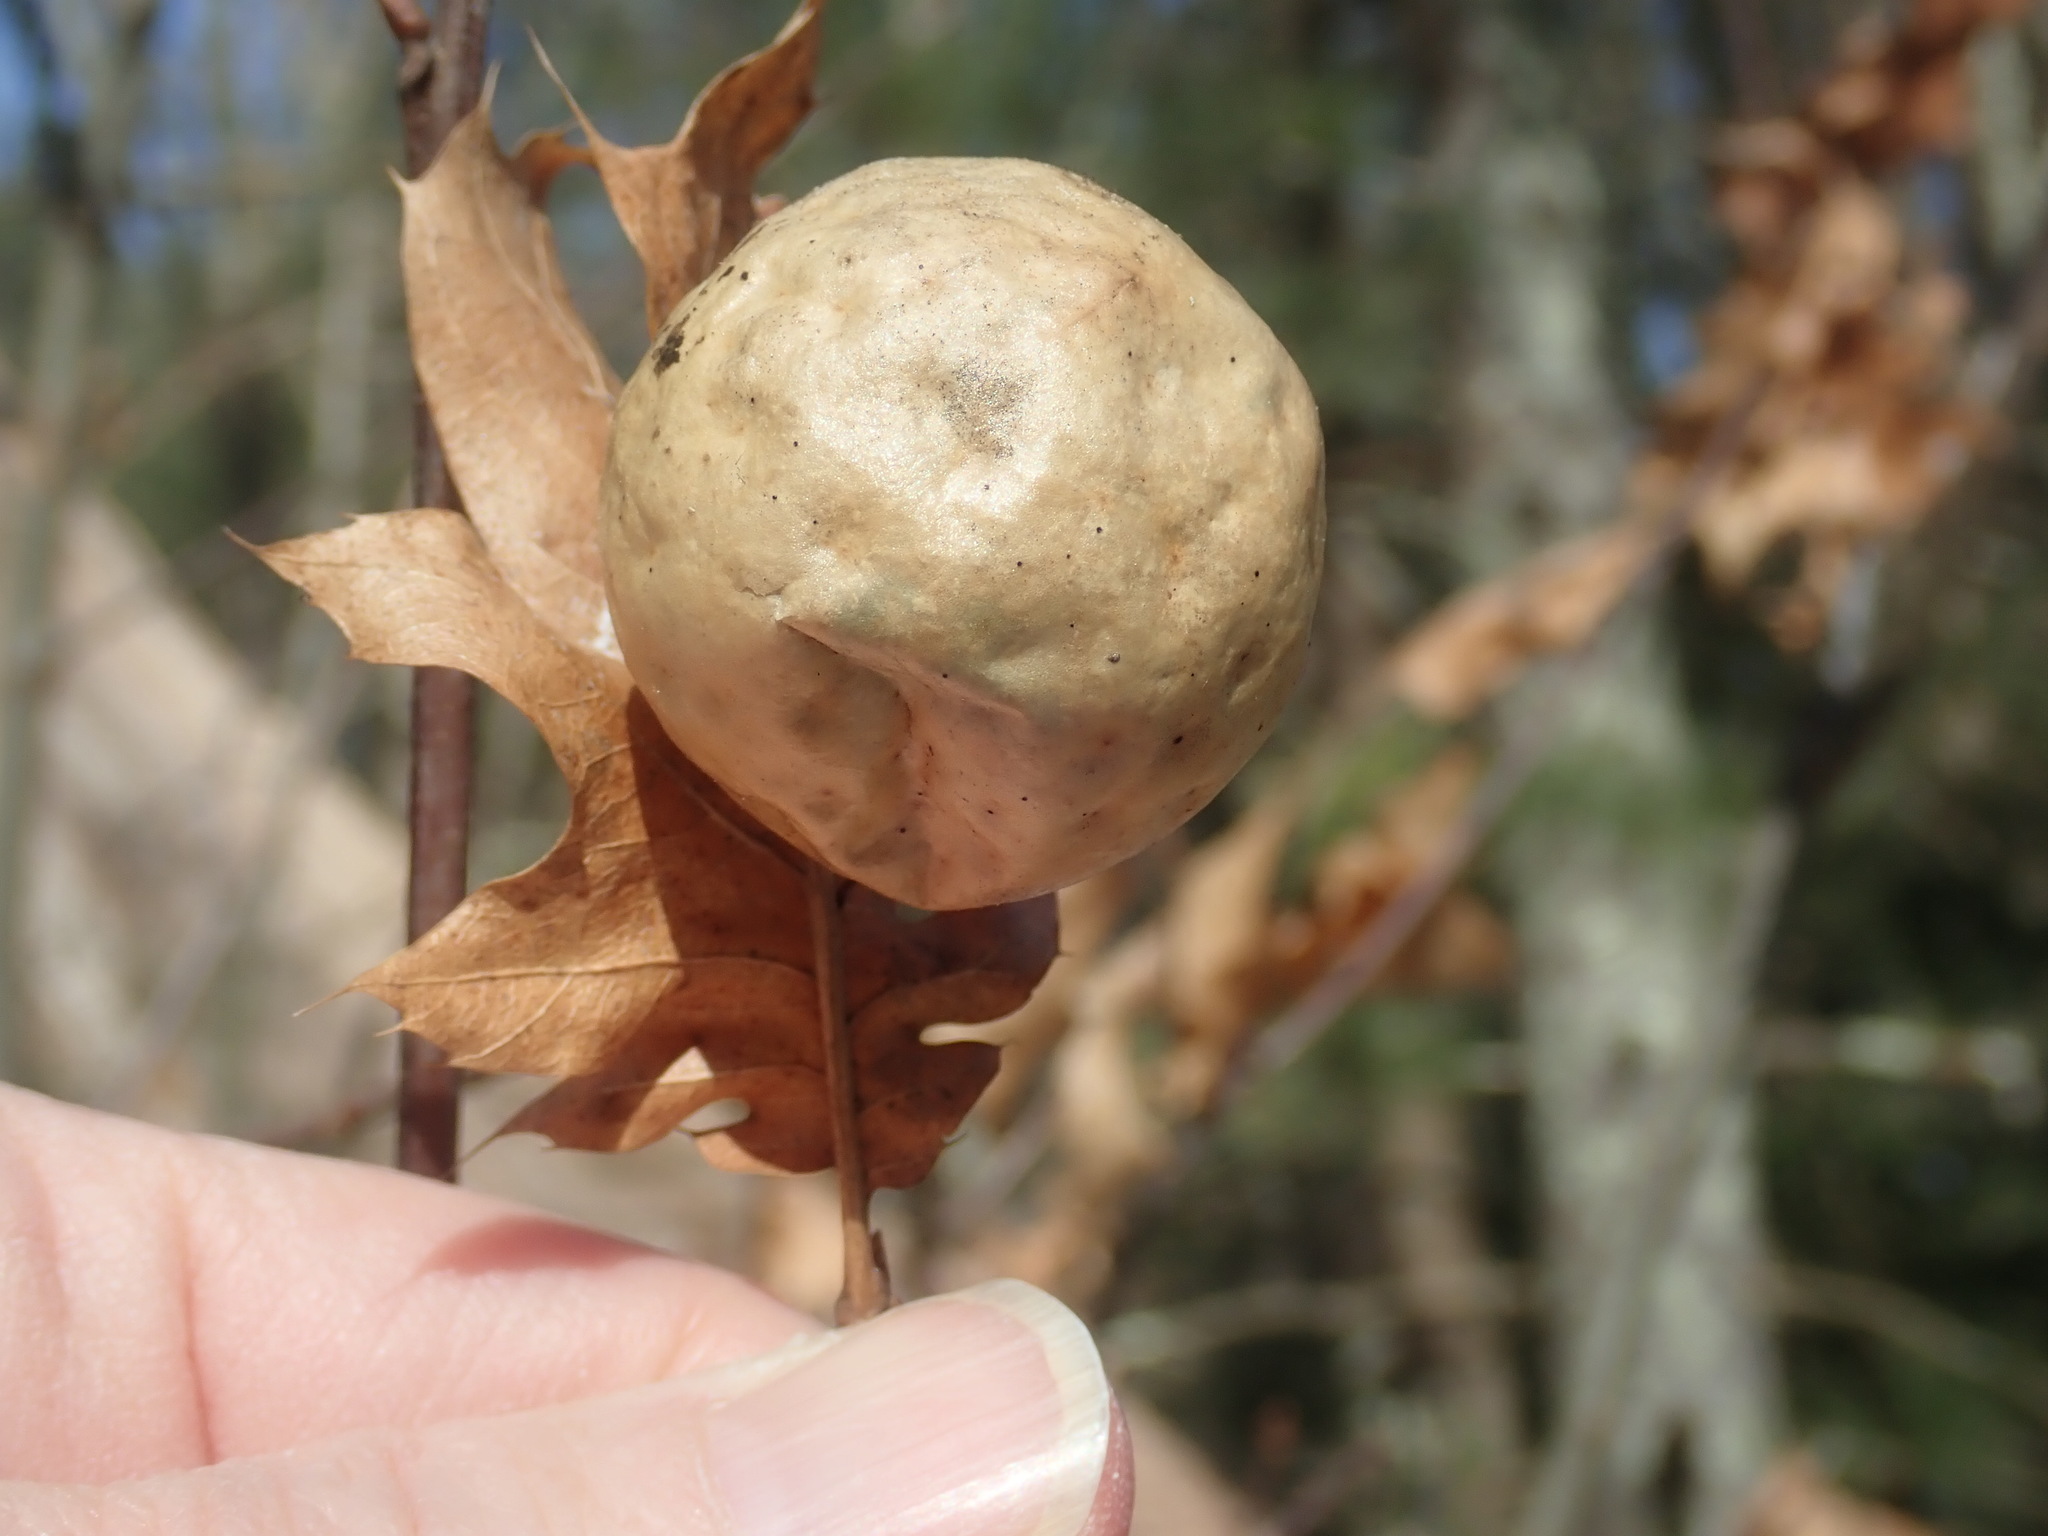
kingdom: Animalia
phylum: Arthropoda
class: Insecta
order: Hymenoptera
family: Cynipidae
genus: Amphibolips
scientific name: Amphibolips
